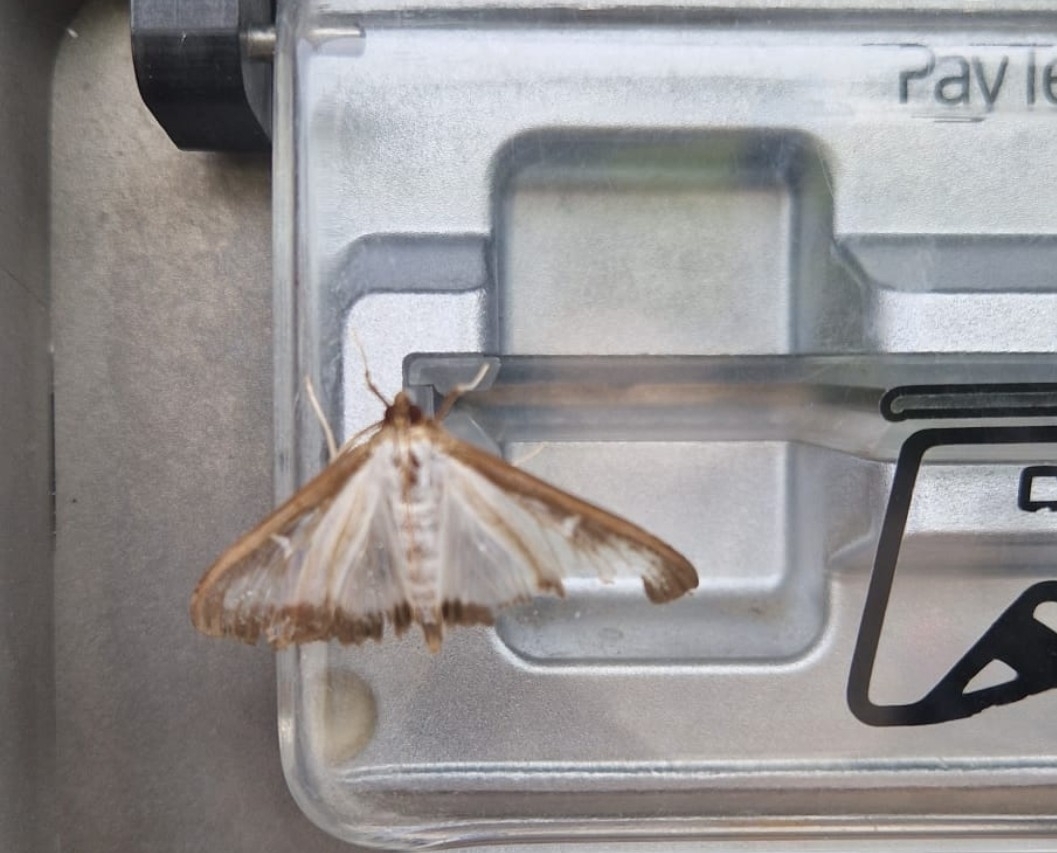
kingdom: Animalia
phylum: Arthropoda
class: Insecta
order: Lepidoptera
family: Crambidae
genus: Cydalima
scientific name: Cydalima perspectalis
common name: Box tree moth
